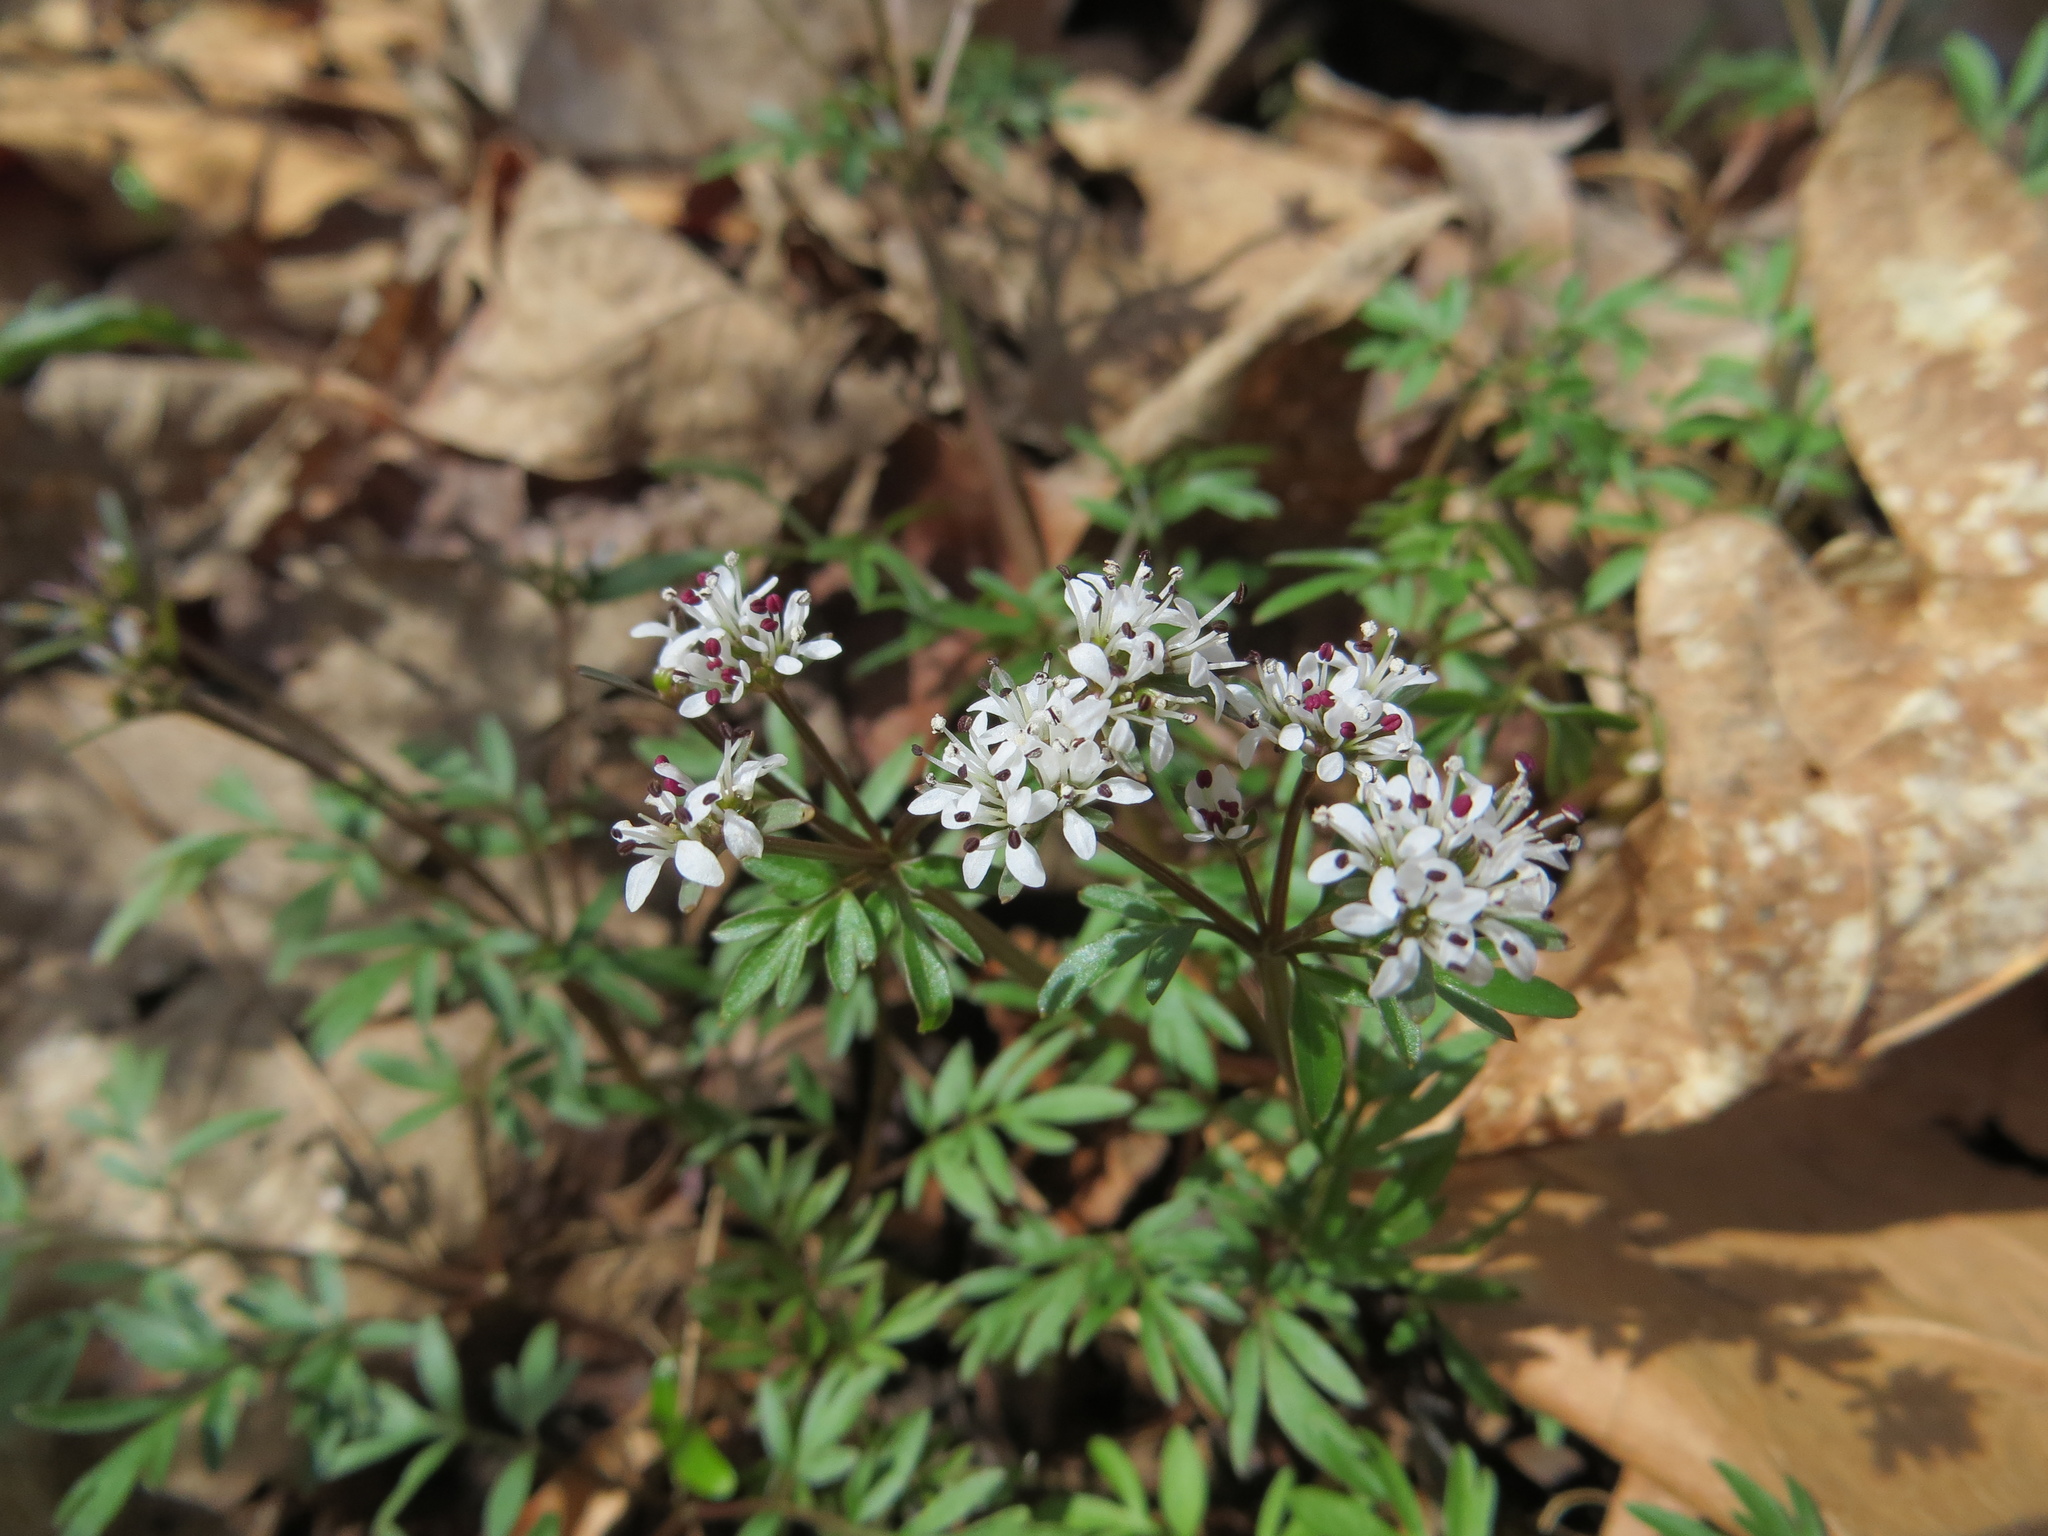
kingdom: Plantae
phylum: Tracheophyta
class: Magnoliopsida
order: Apiales
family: Apiaceae
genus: Erigenia
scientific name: Erigenia bulbosa
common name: Pepper-and-salt
